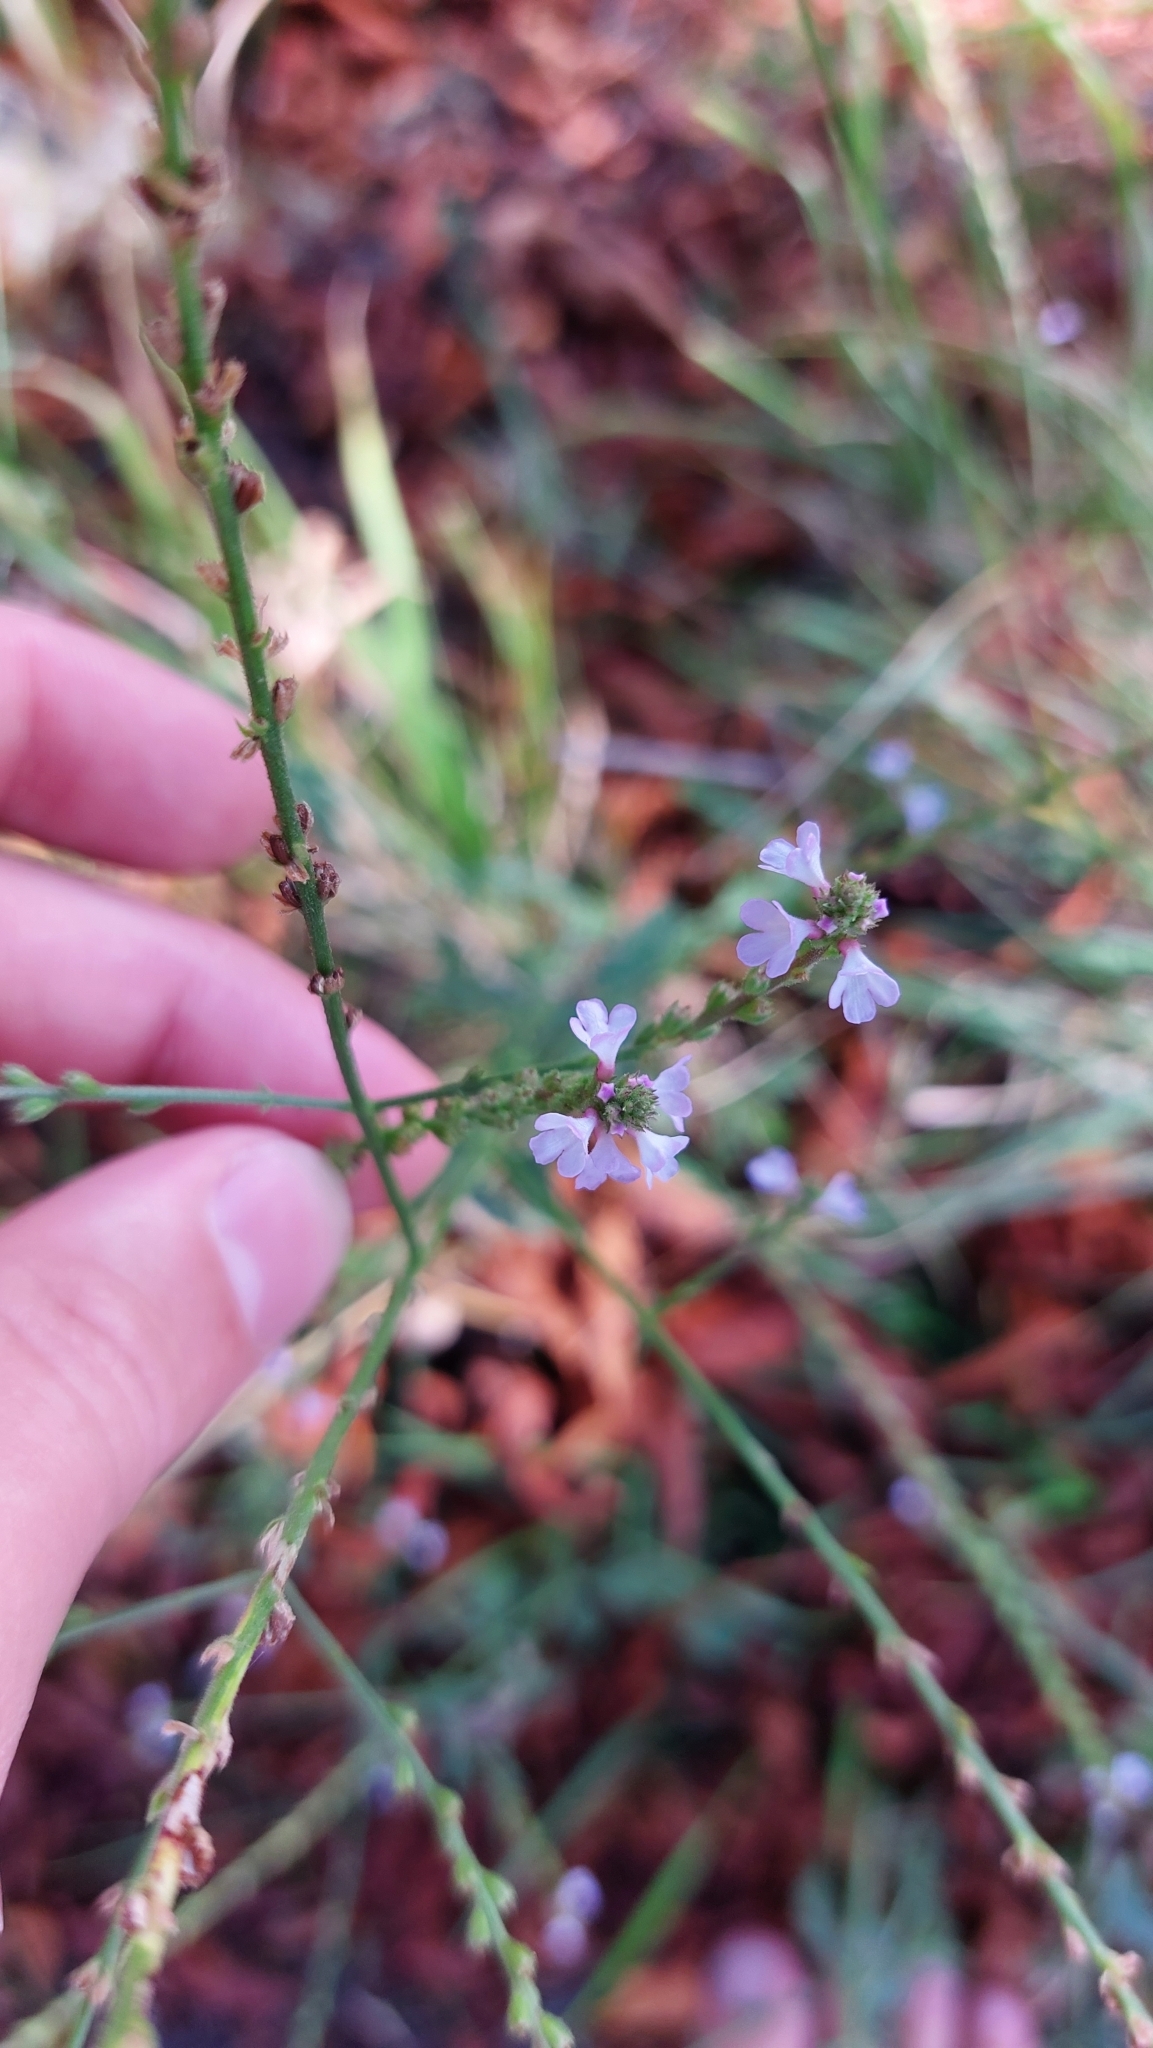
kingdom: Plantae
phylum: Tracheophyta
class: Magnoliopsida
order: Lamiales
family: Verbenaceae
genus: Verbena
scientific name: Verbena officinalis
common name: Vervain
